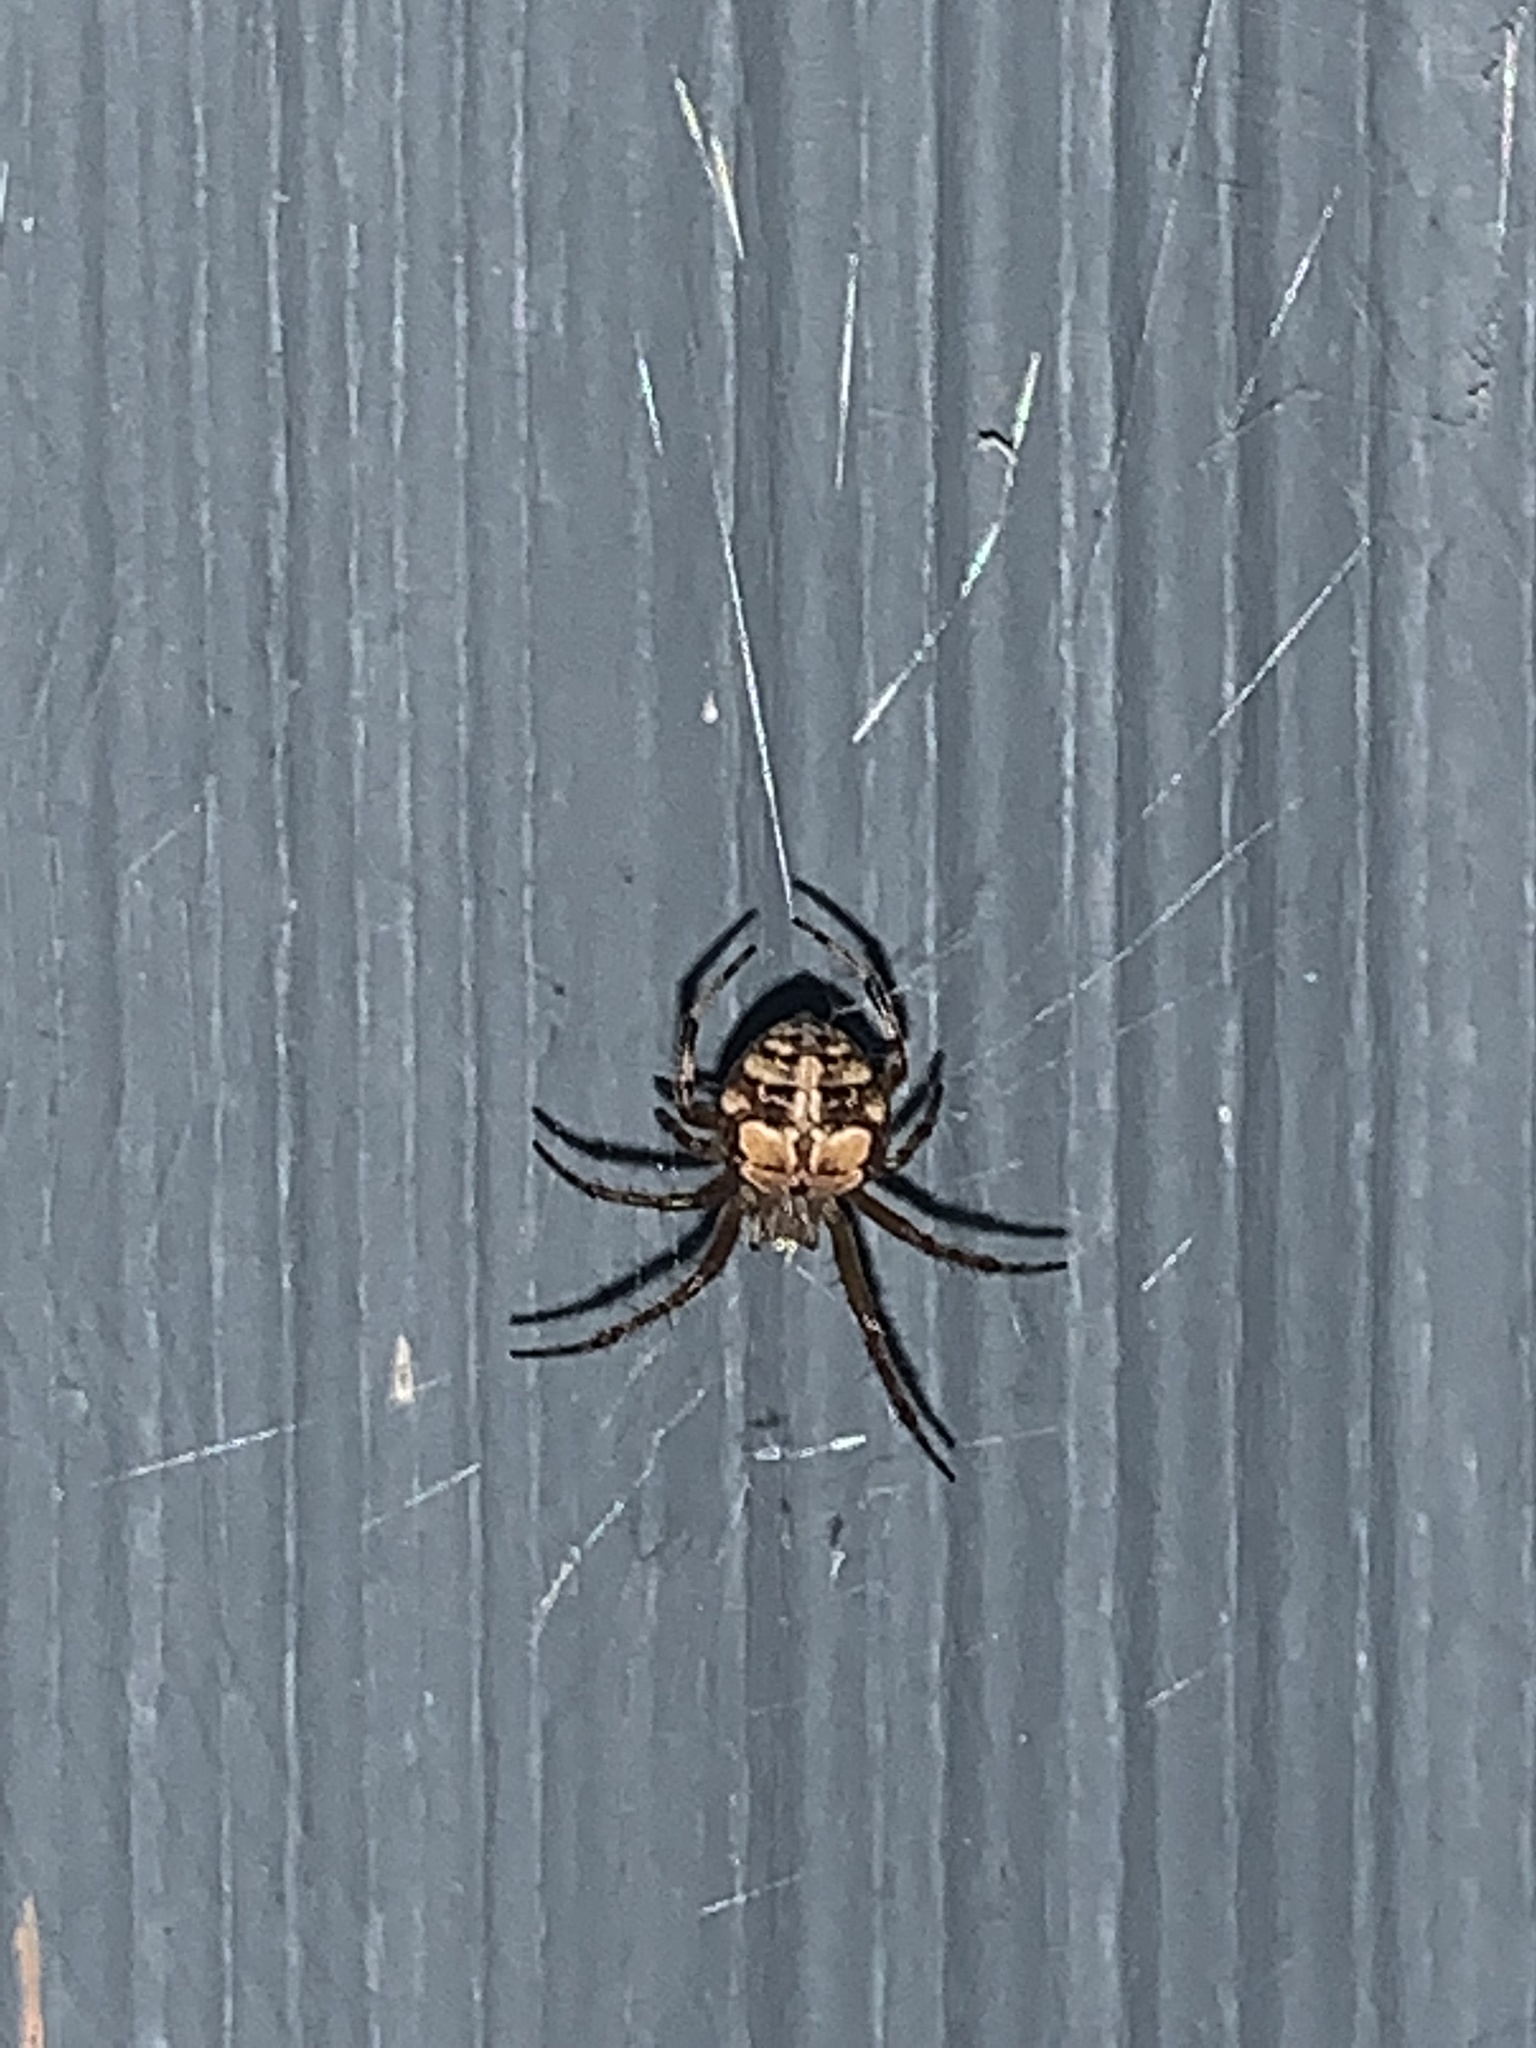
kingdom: Animalia
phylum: Arthropoda
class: Arachnida
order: Araneae
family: Araneidae
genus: Araneus
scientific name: Araneus pegnia
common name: Orb weavers
